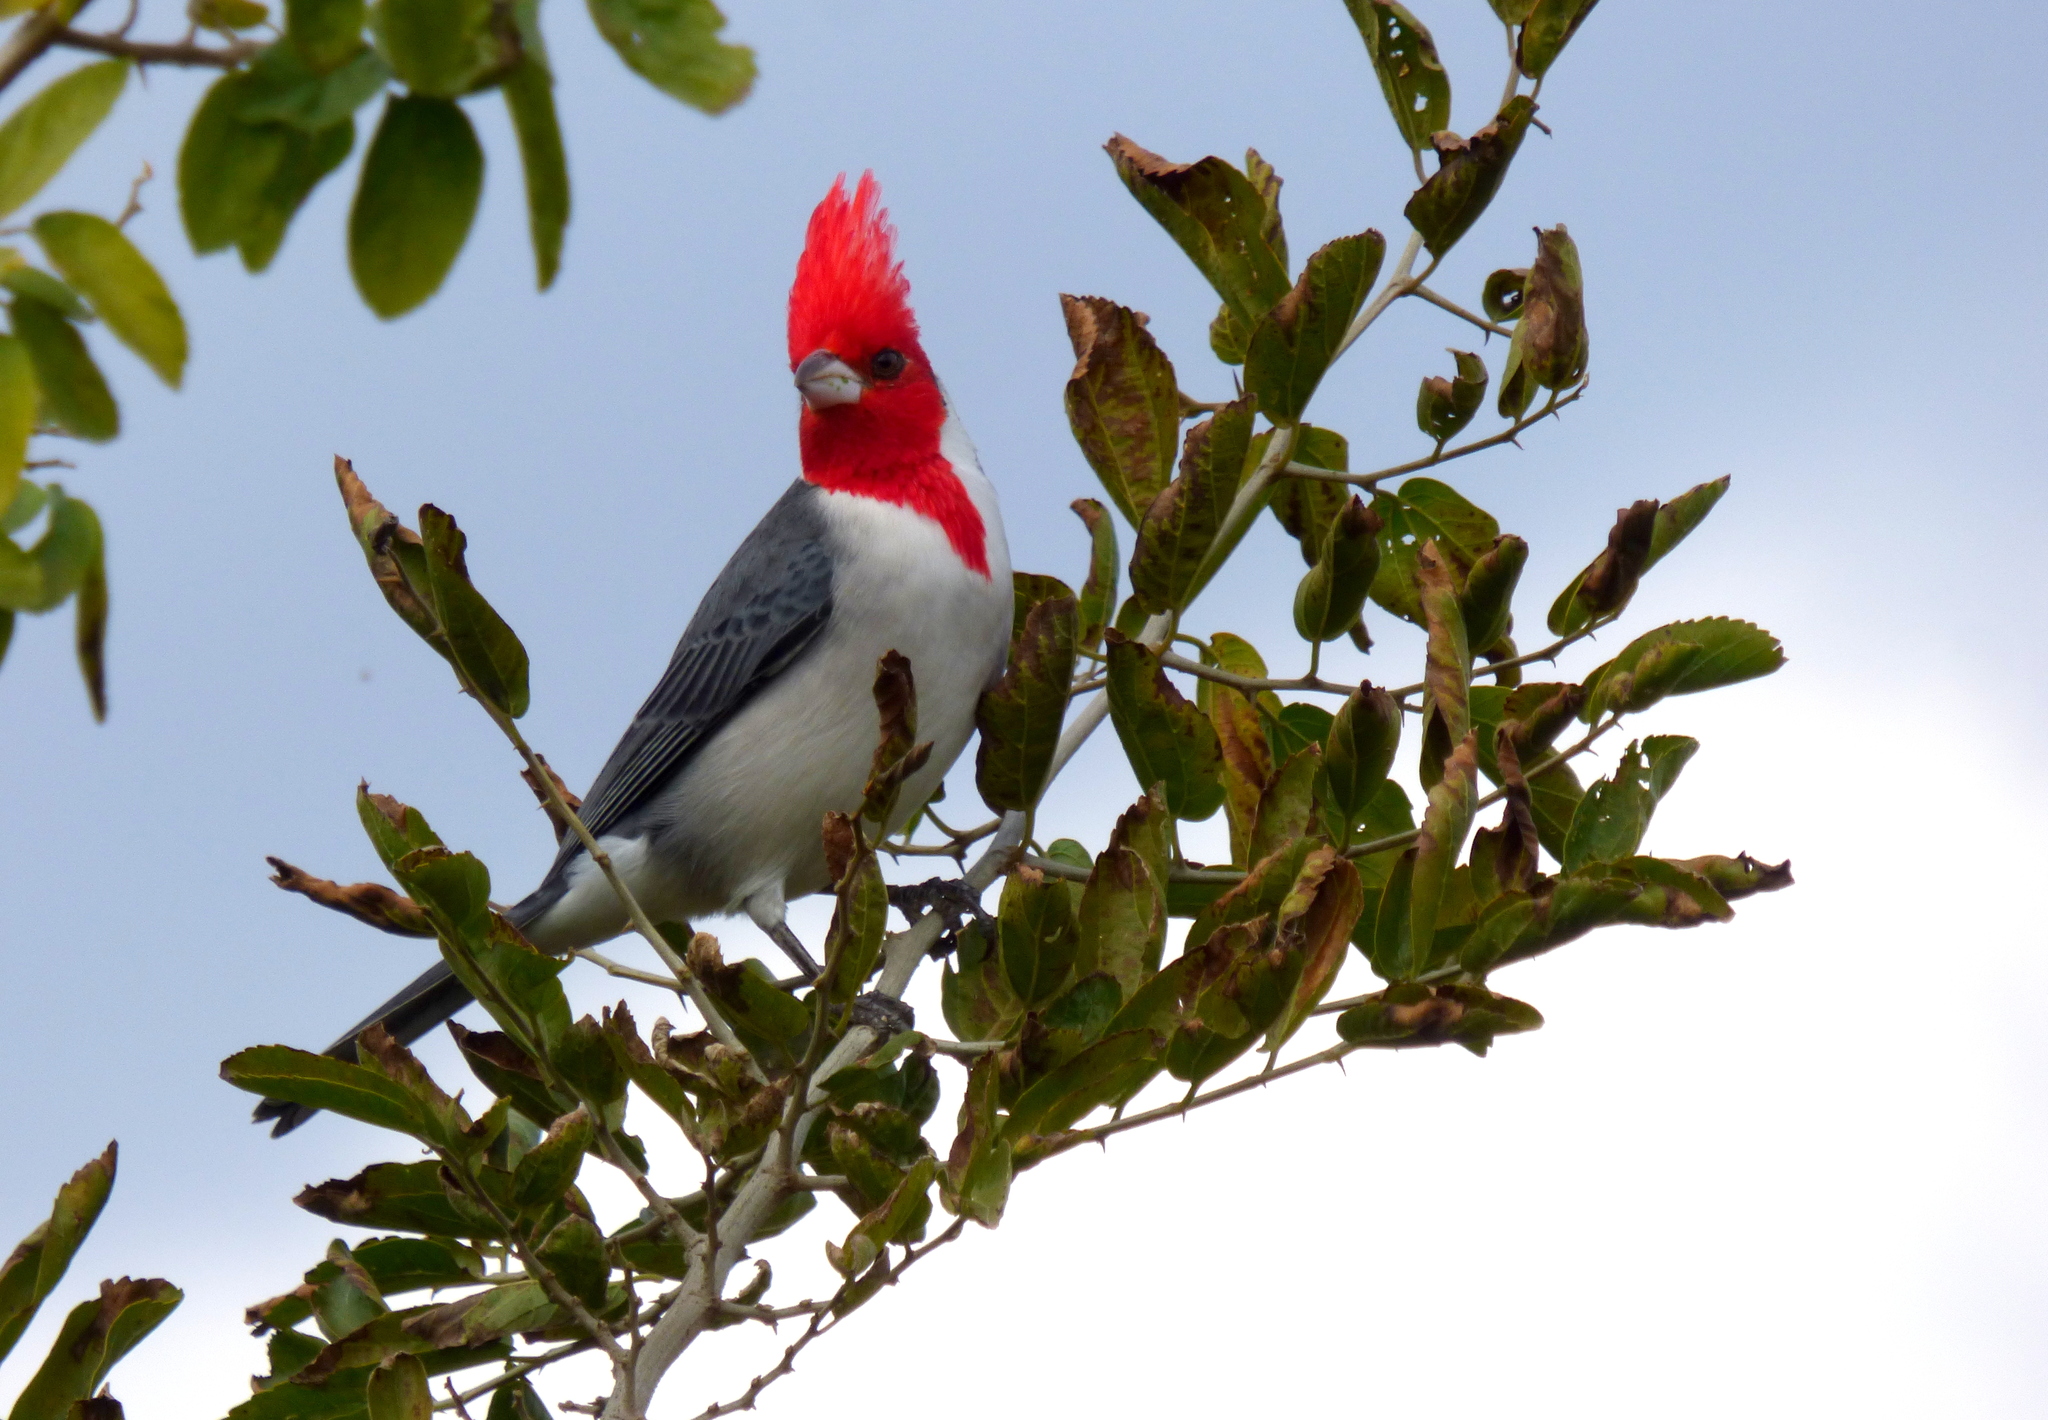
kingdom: Animalia
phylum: Chordata
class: Aves
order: Passeriformes
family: Thraupidae
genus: Paroaria
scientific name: Paroaria coronata
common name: Red-crested cardinal
